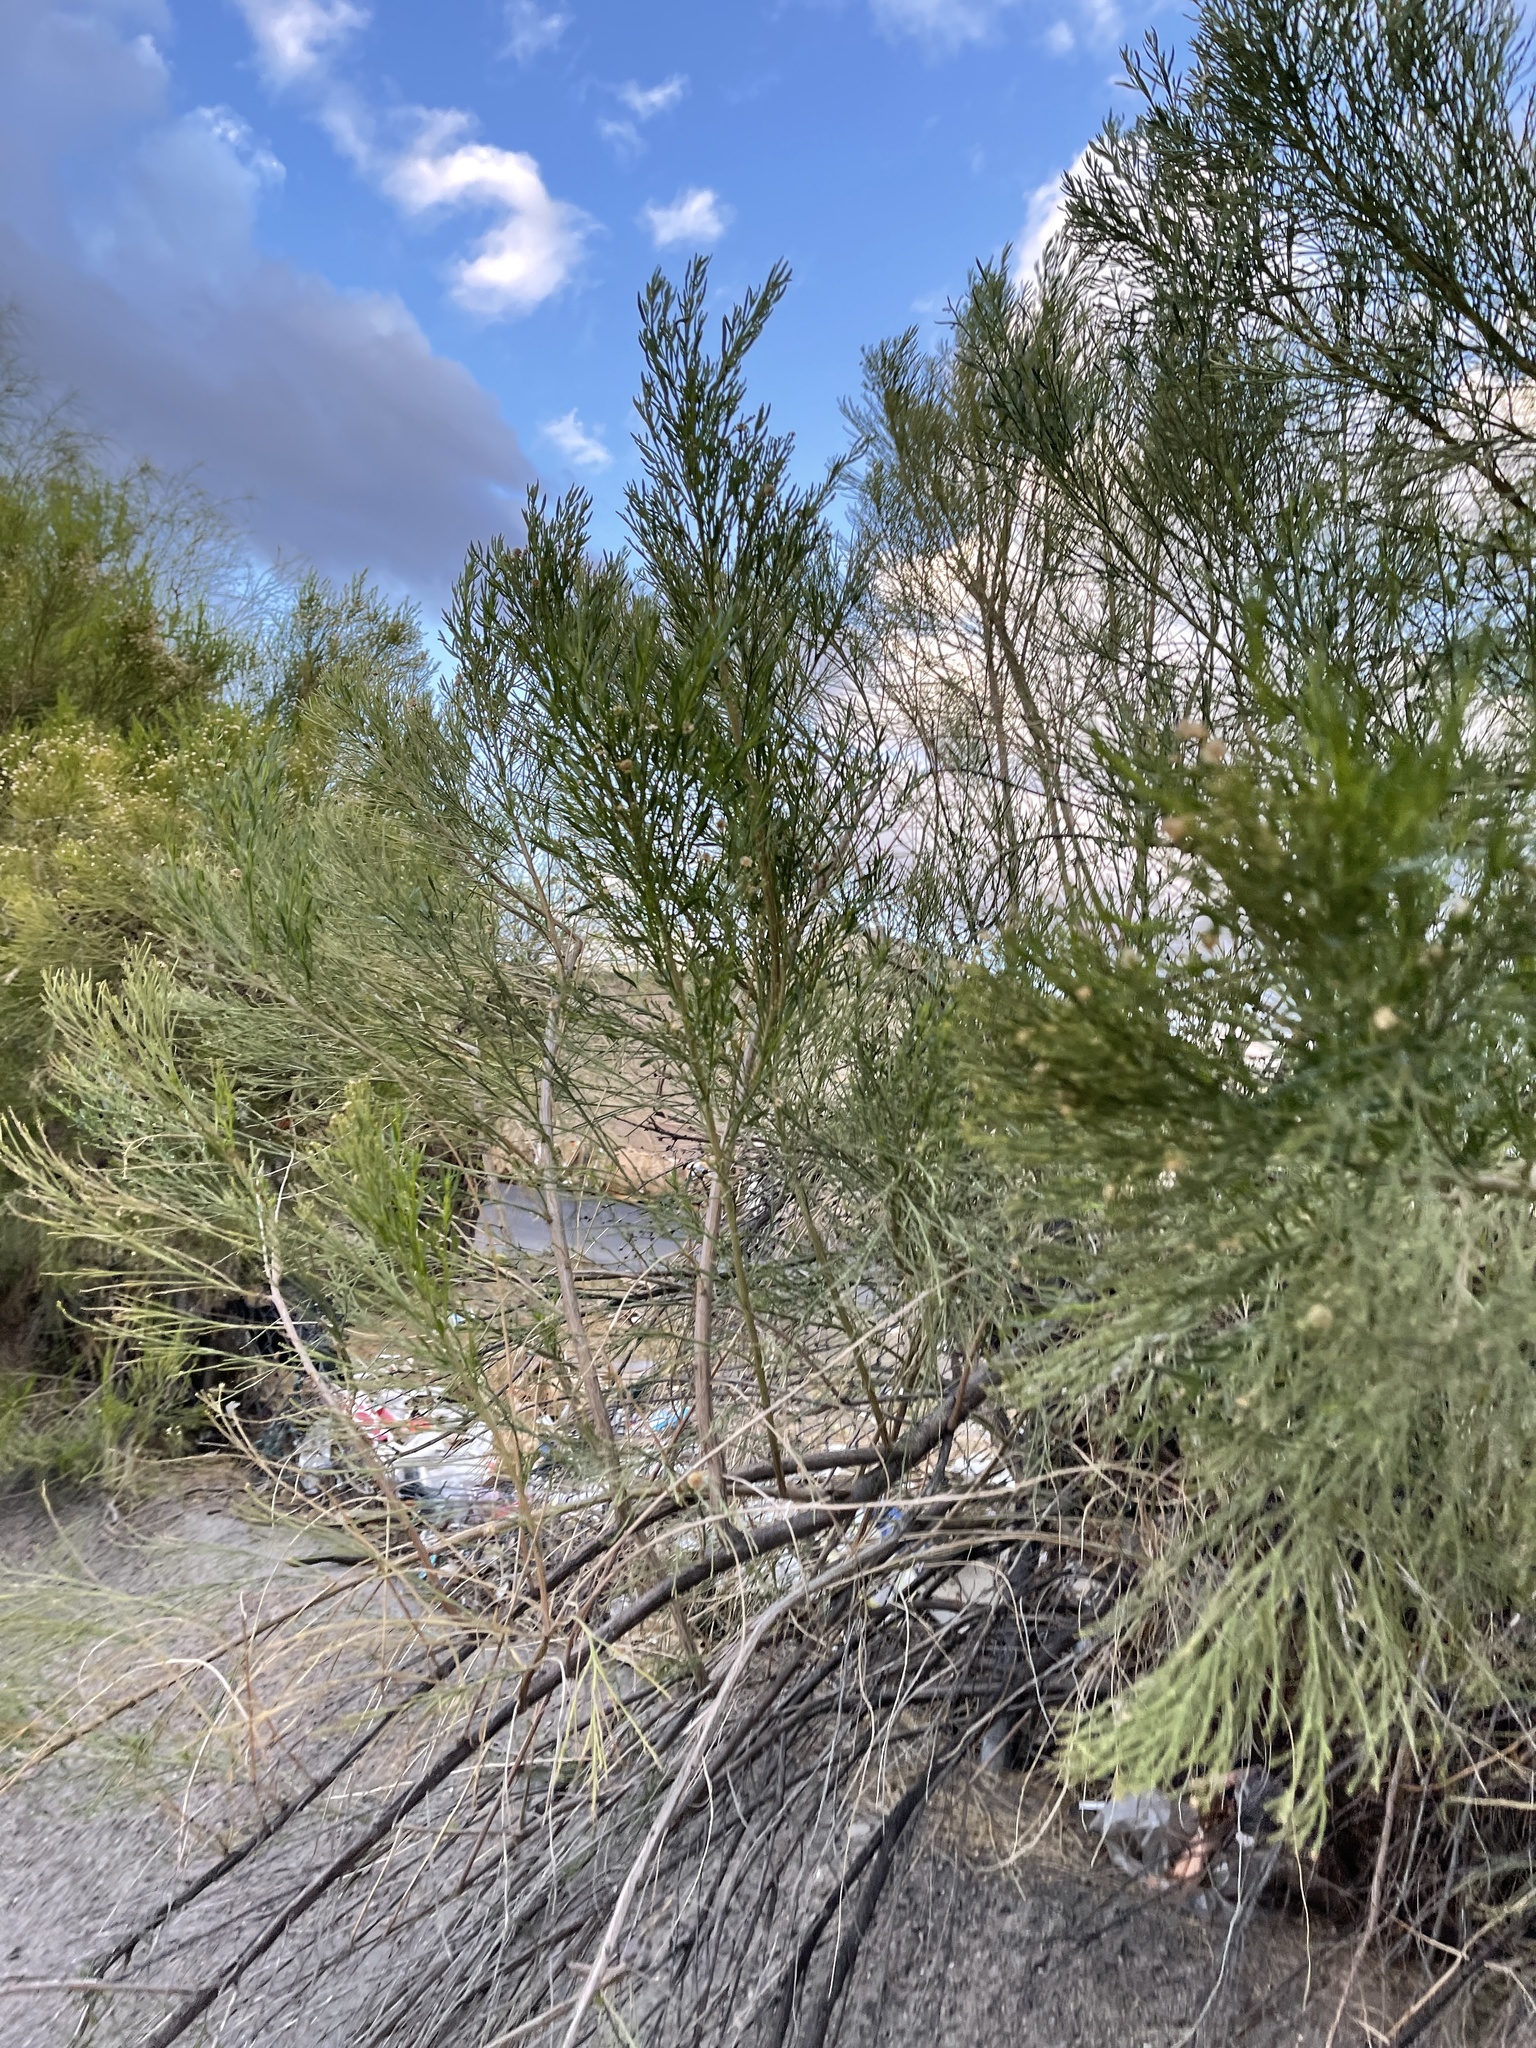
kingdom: Plantae
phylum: Tracheophyta
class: Magnoliopsida
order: Asterales
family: Asteraceae
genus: Baccharis
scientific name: Baccharis sarothroides
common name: Desert-broom
